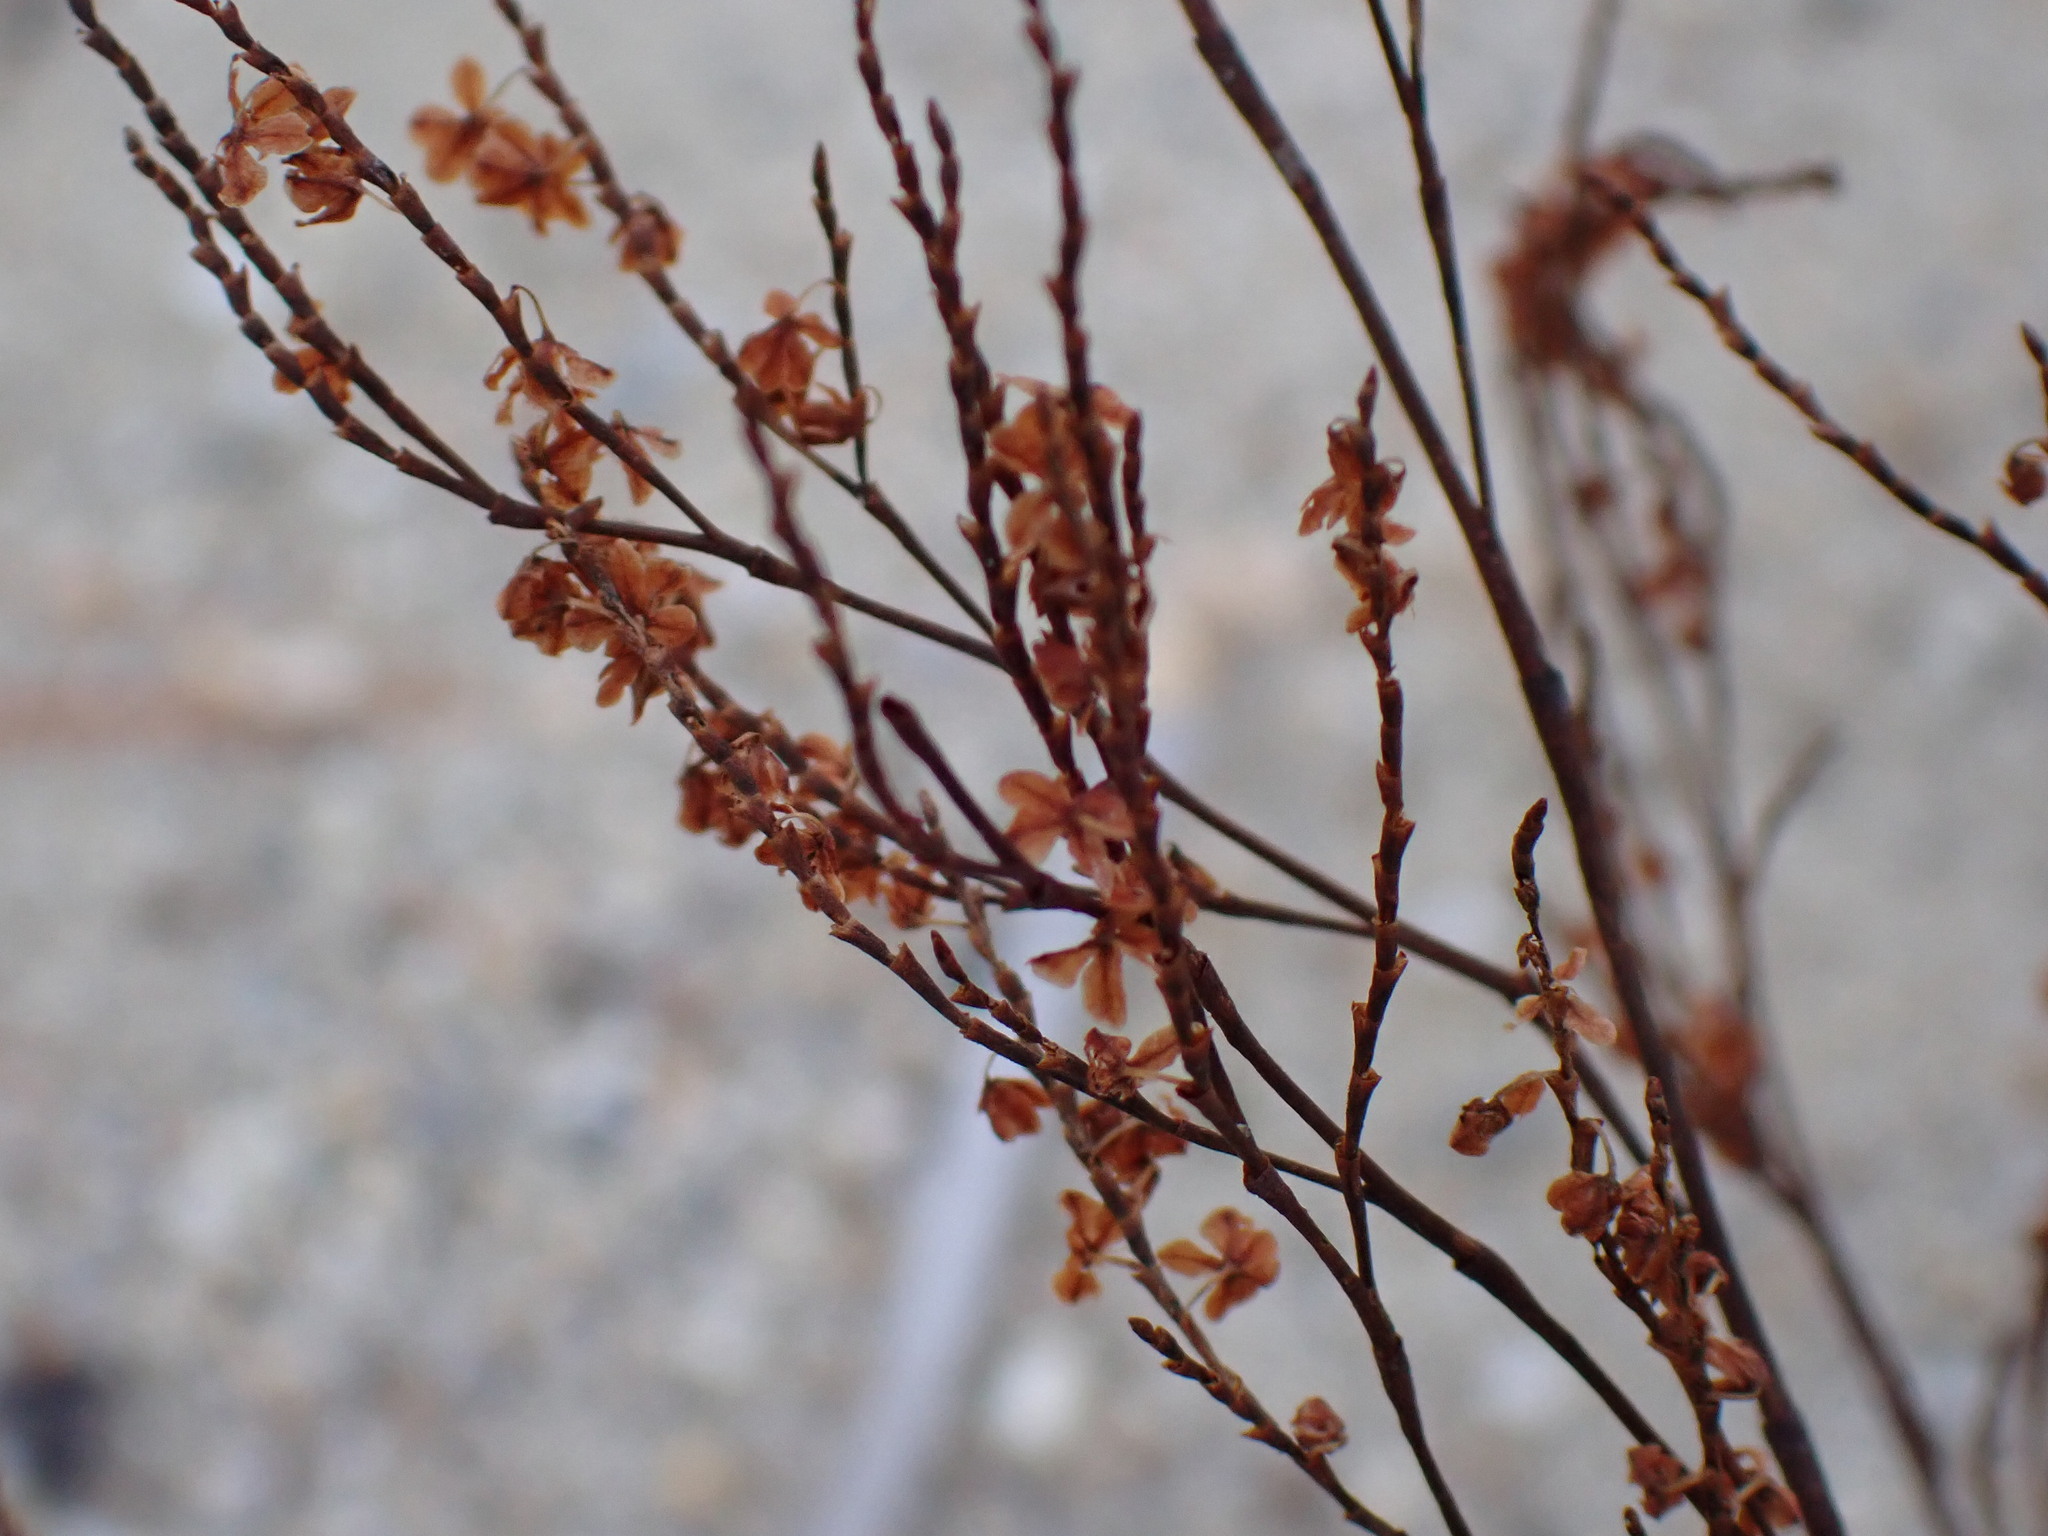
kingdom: Plantae
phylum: Tracheophyta
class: Magnoliopsida
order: Caryophyllales
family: Polygonaceae
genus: Polygonella
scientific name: Polygonella articulata
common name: Coastal jointweed
